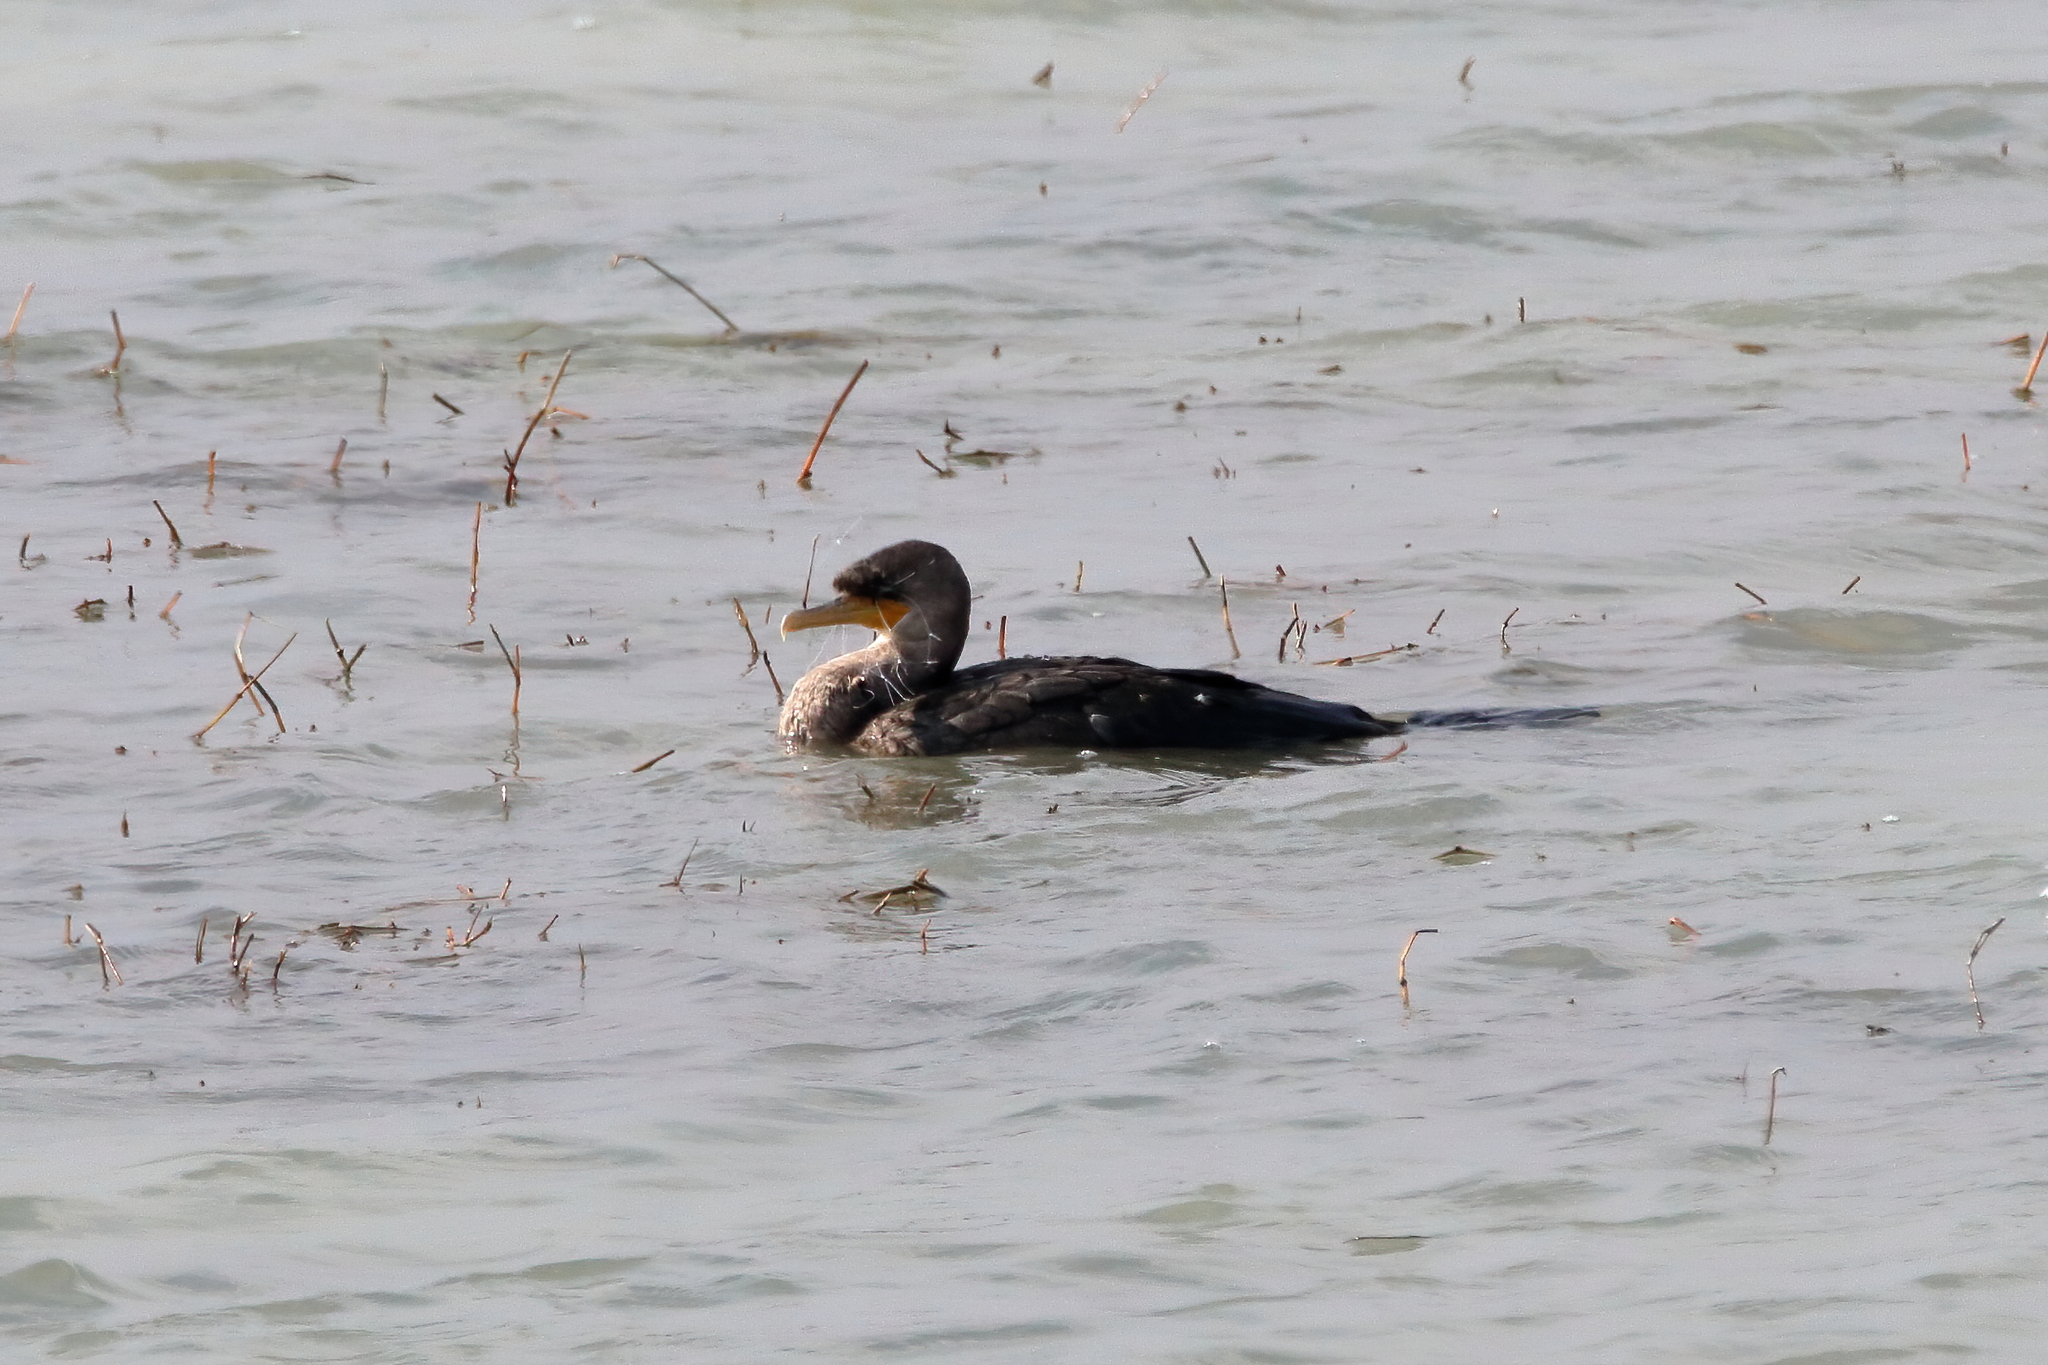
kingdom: Animalia
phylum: Chordata
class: Aves
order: Suliformes
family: Phalacrocoracidae
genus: Phalacrocorax
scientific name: Phalacrocorax auritus
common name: Double-crested cormorant
